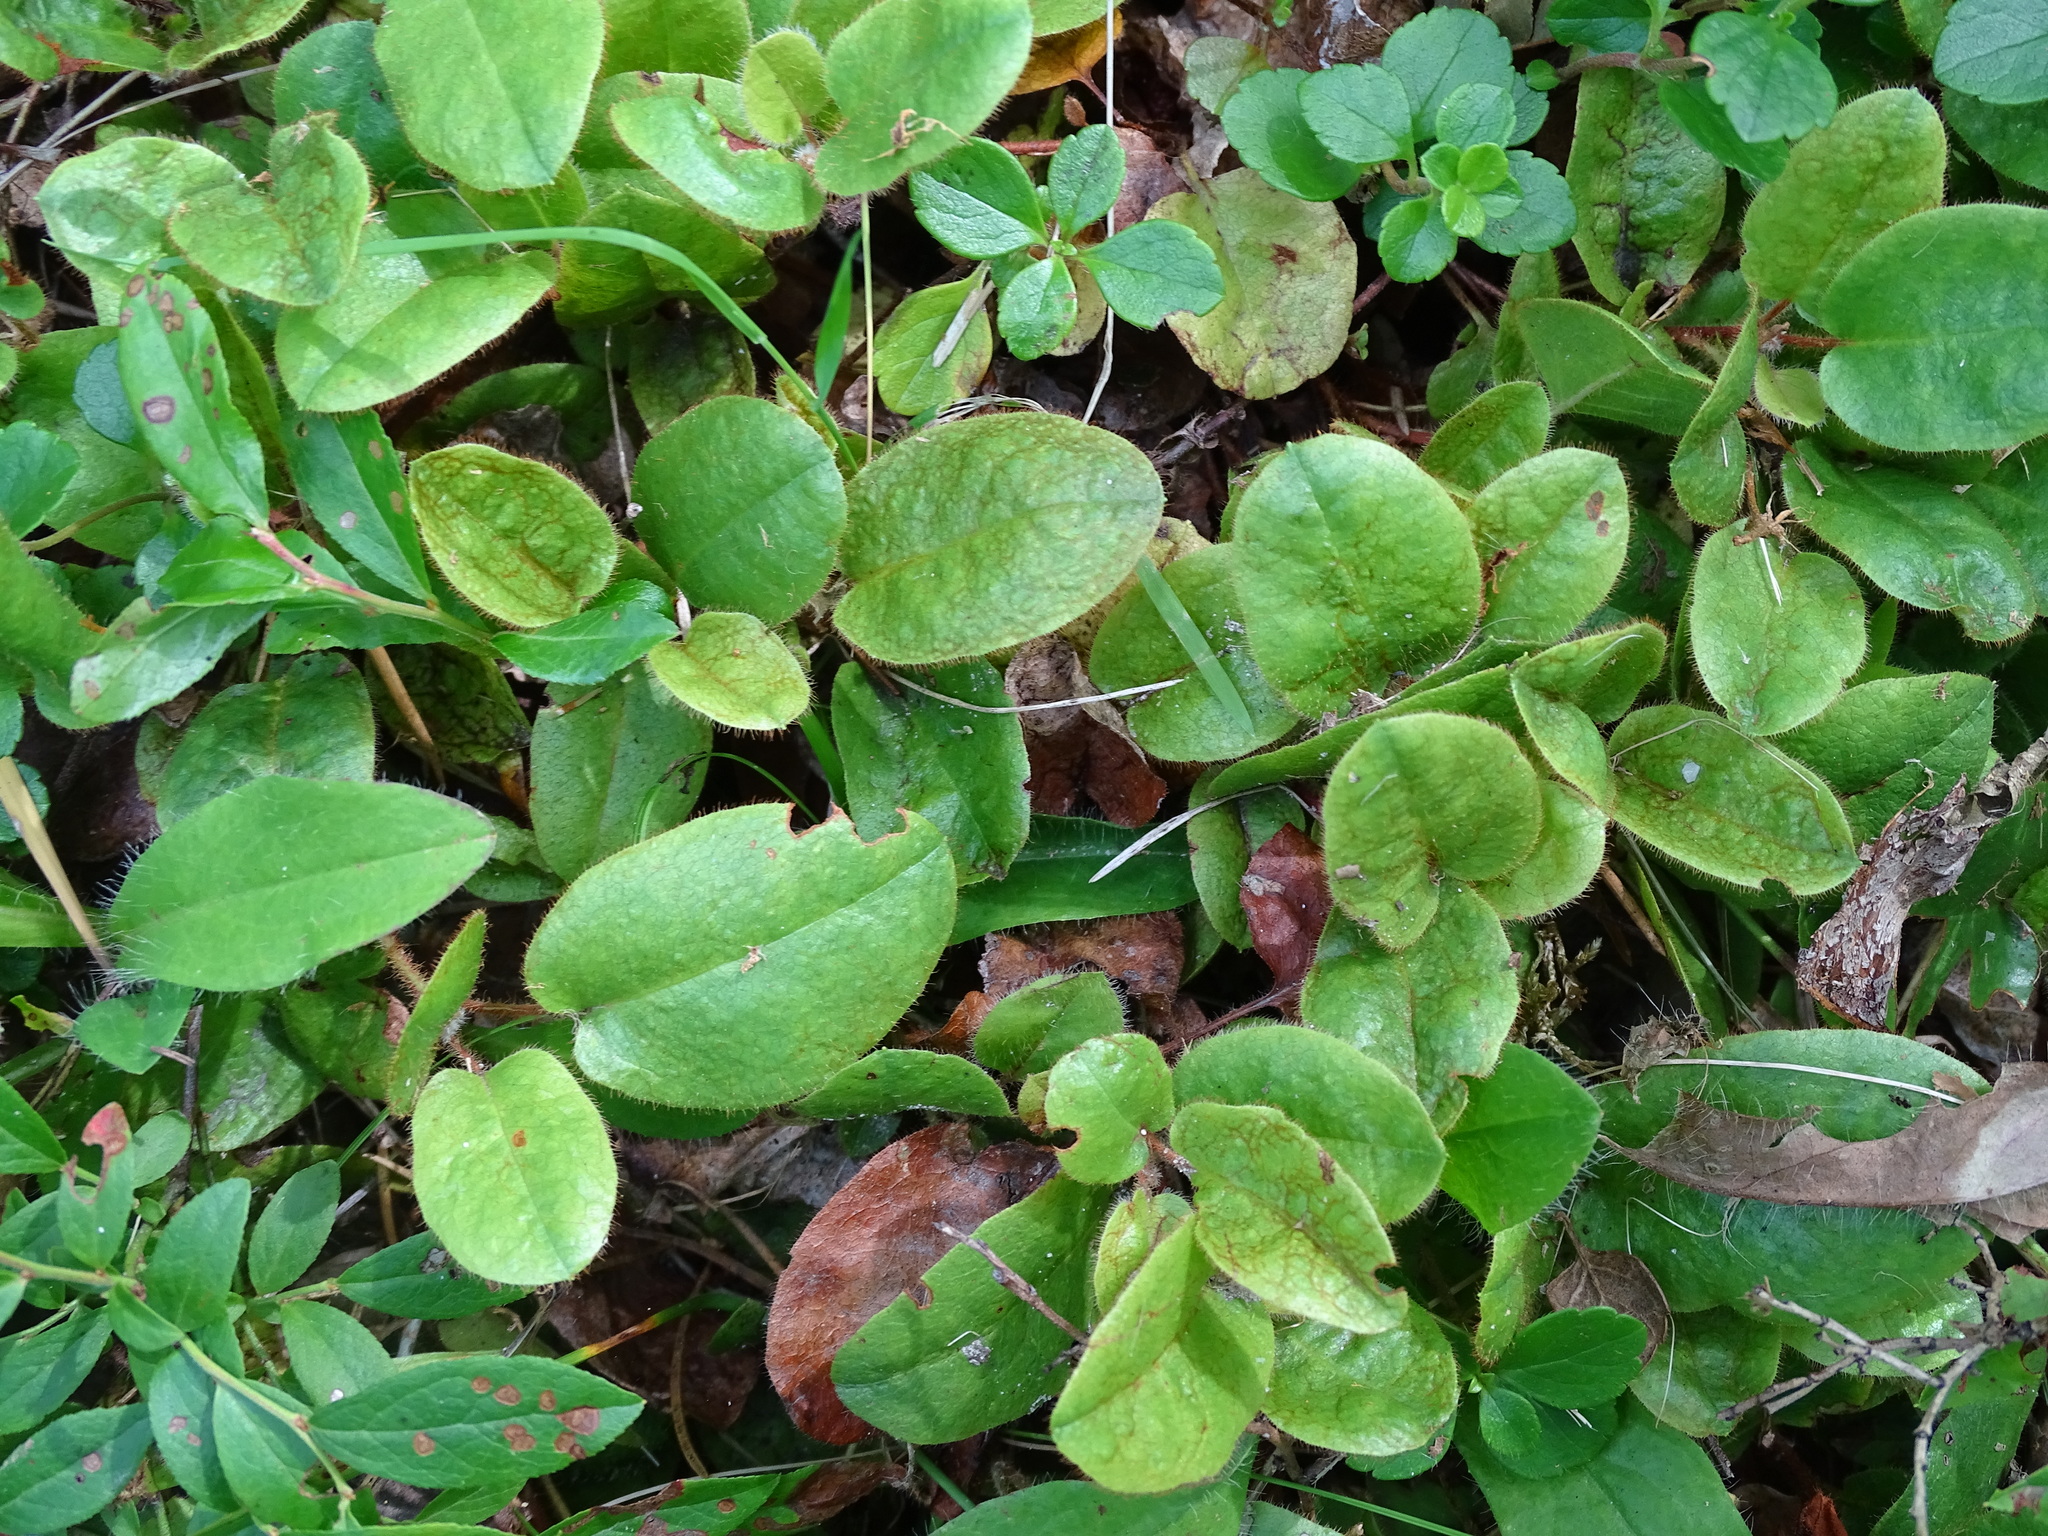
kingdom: Plantae
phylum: Tracheophyta
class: Magnoliopsida
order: Ericales
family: Ericaceae
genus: Epigaea
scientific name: Epigaea repens
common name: Gravelroot
